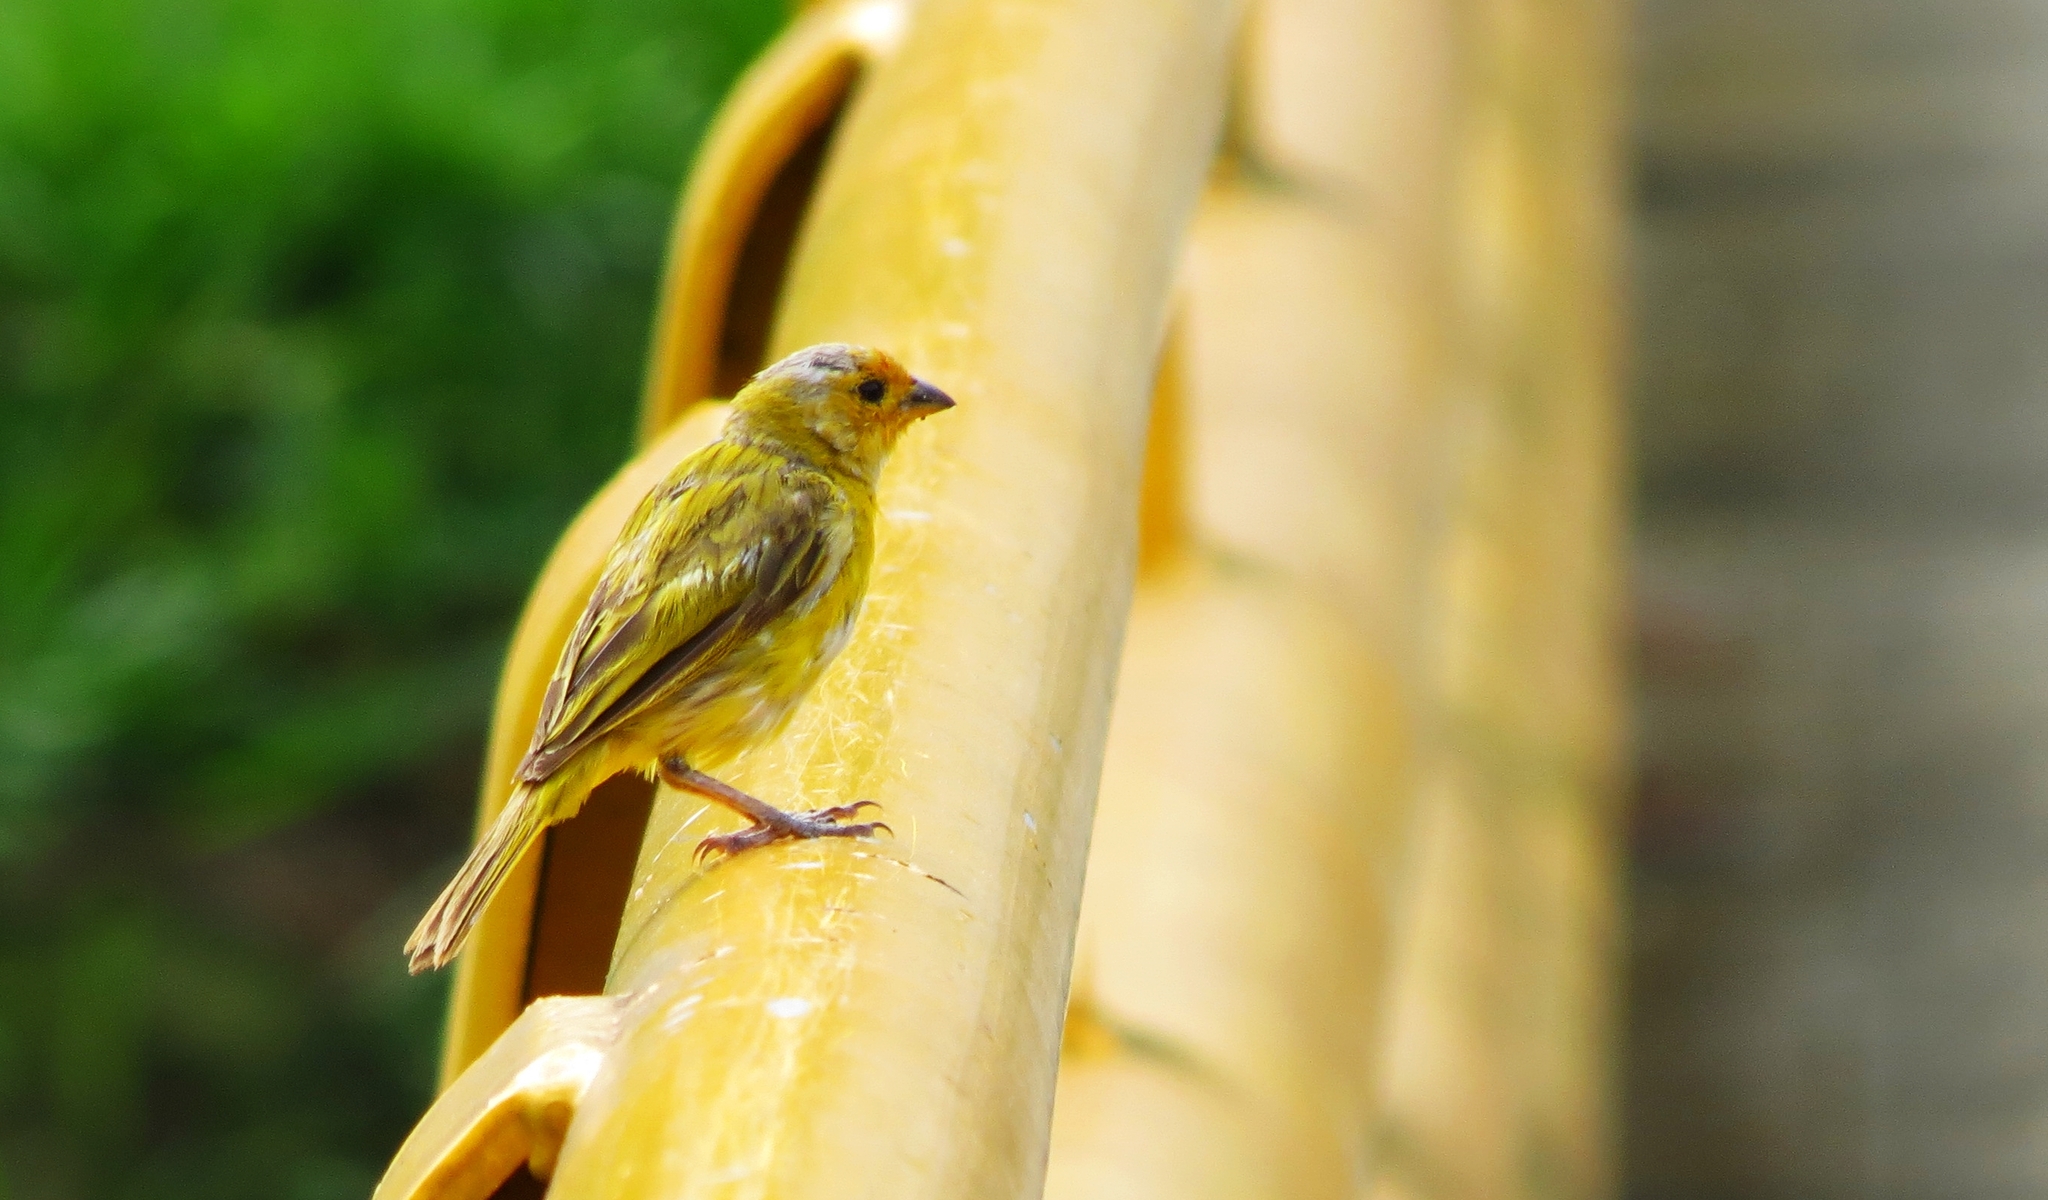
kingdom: Animalia
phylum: Chordata
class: Aves
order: Passeriformes
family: Thraupidae
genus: Sicalis
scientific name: Sicalis flaveola
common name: Saffron finch
